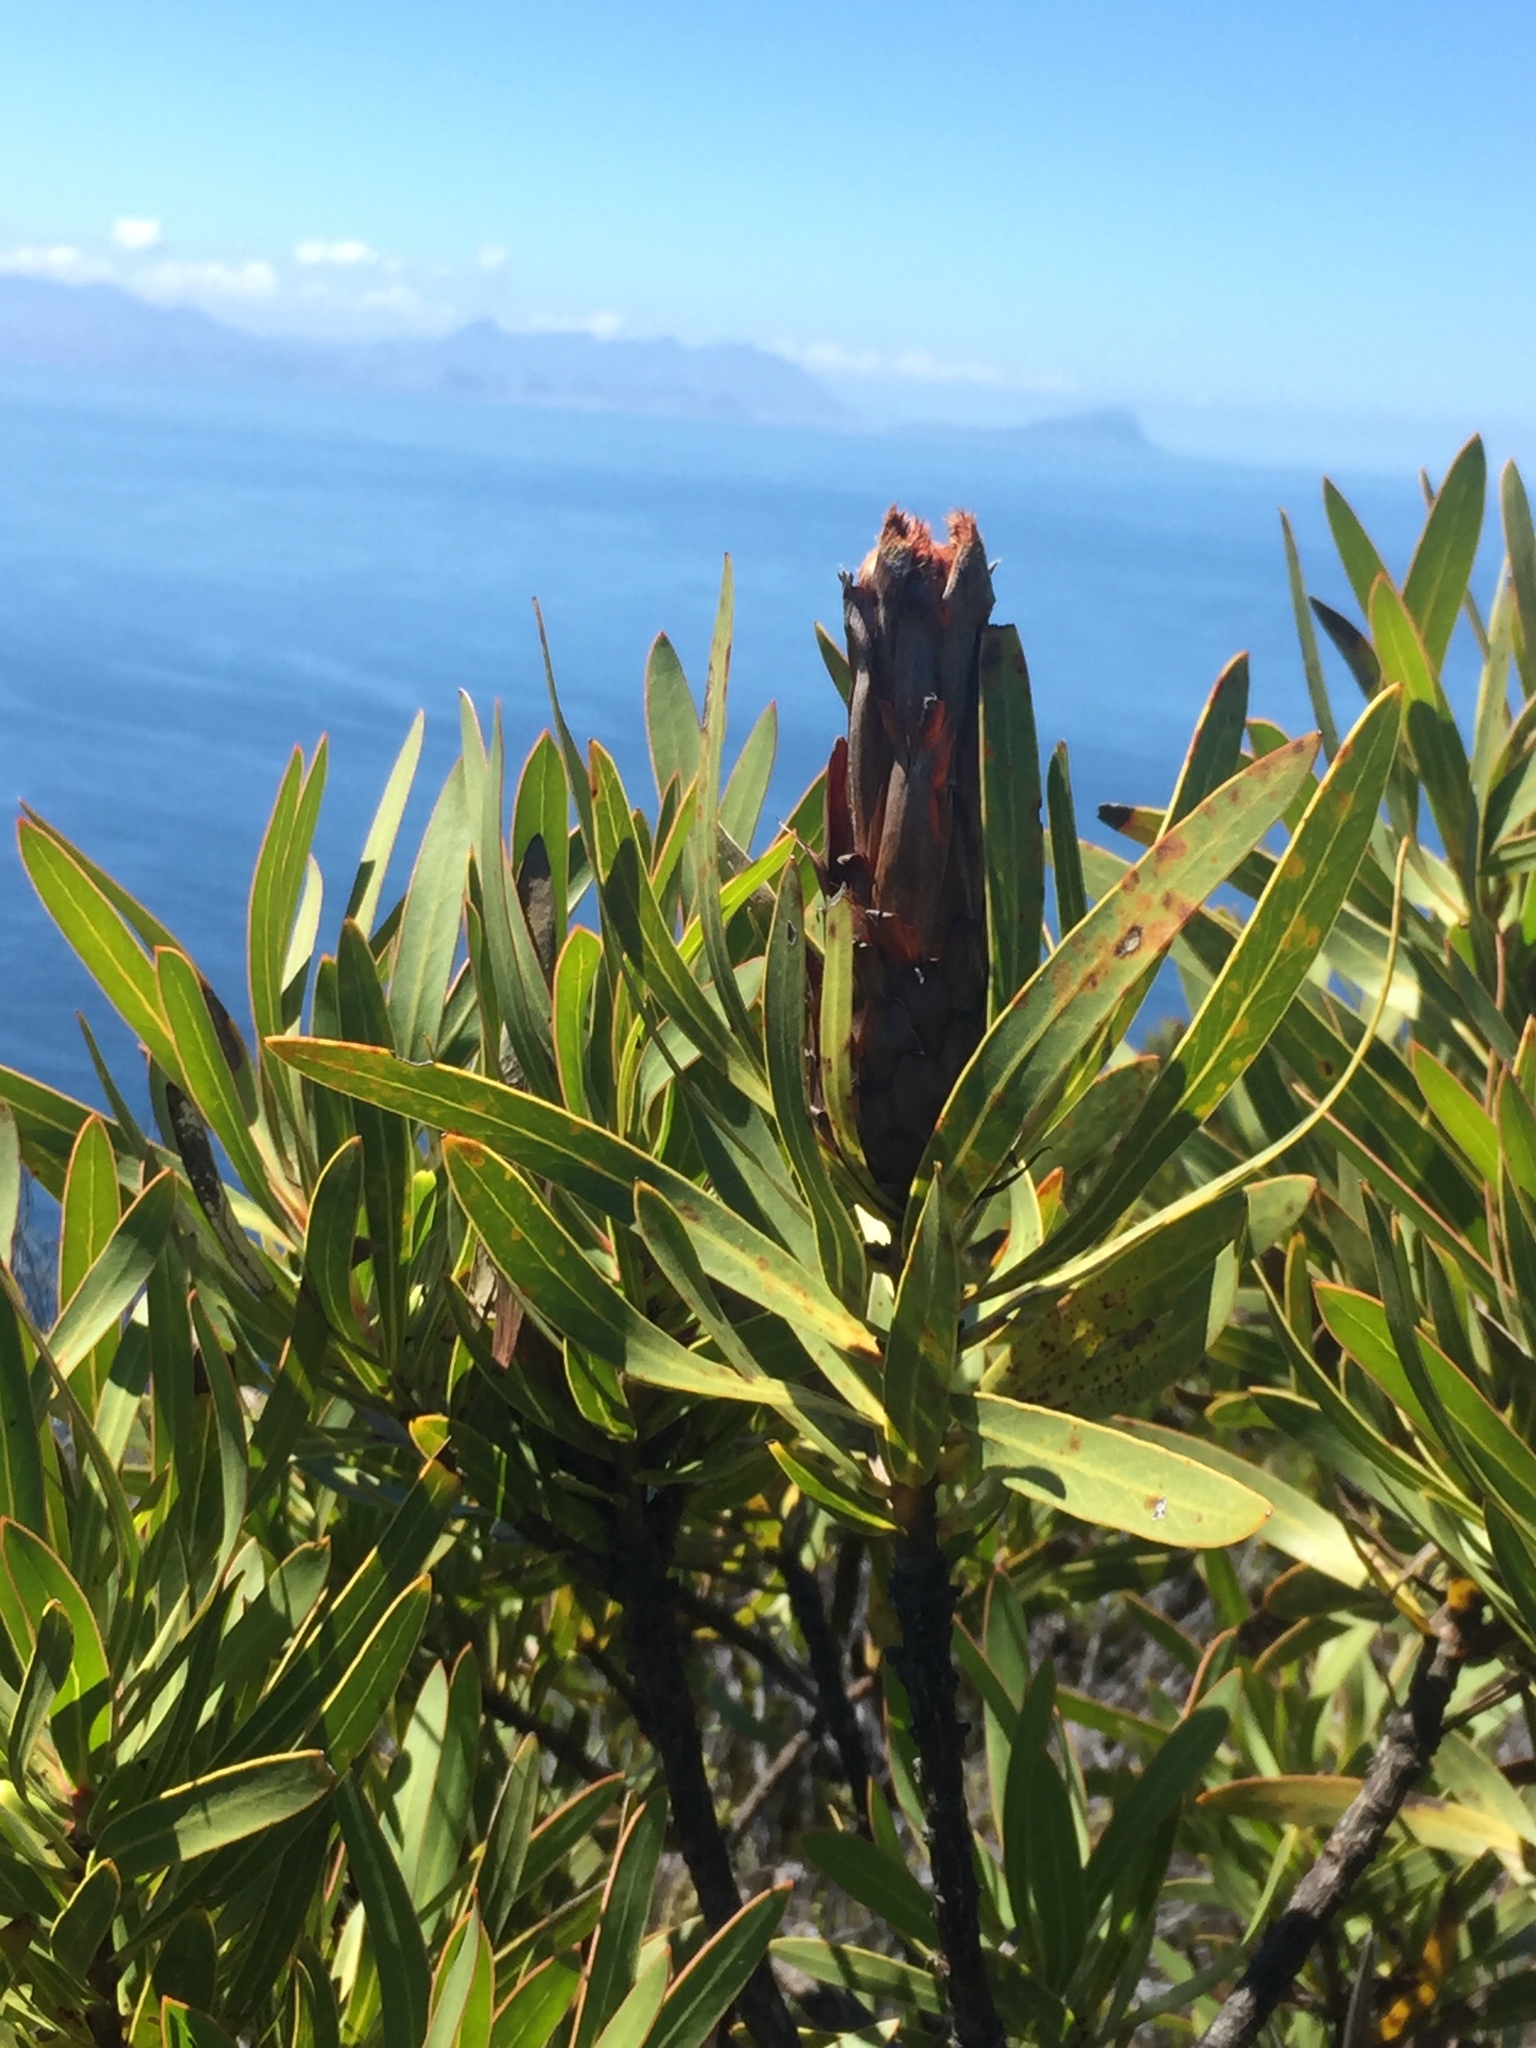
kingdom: Plantae
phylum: Tracheophyta
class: Magnoliopsida
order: Proteales
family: Proteaceae
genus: Protea
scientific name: Protea lepidocarpodendron
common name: Black-bearded protea
